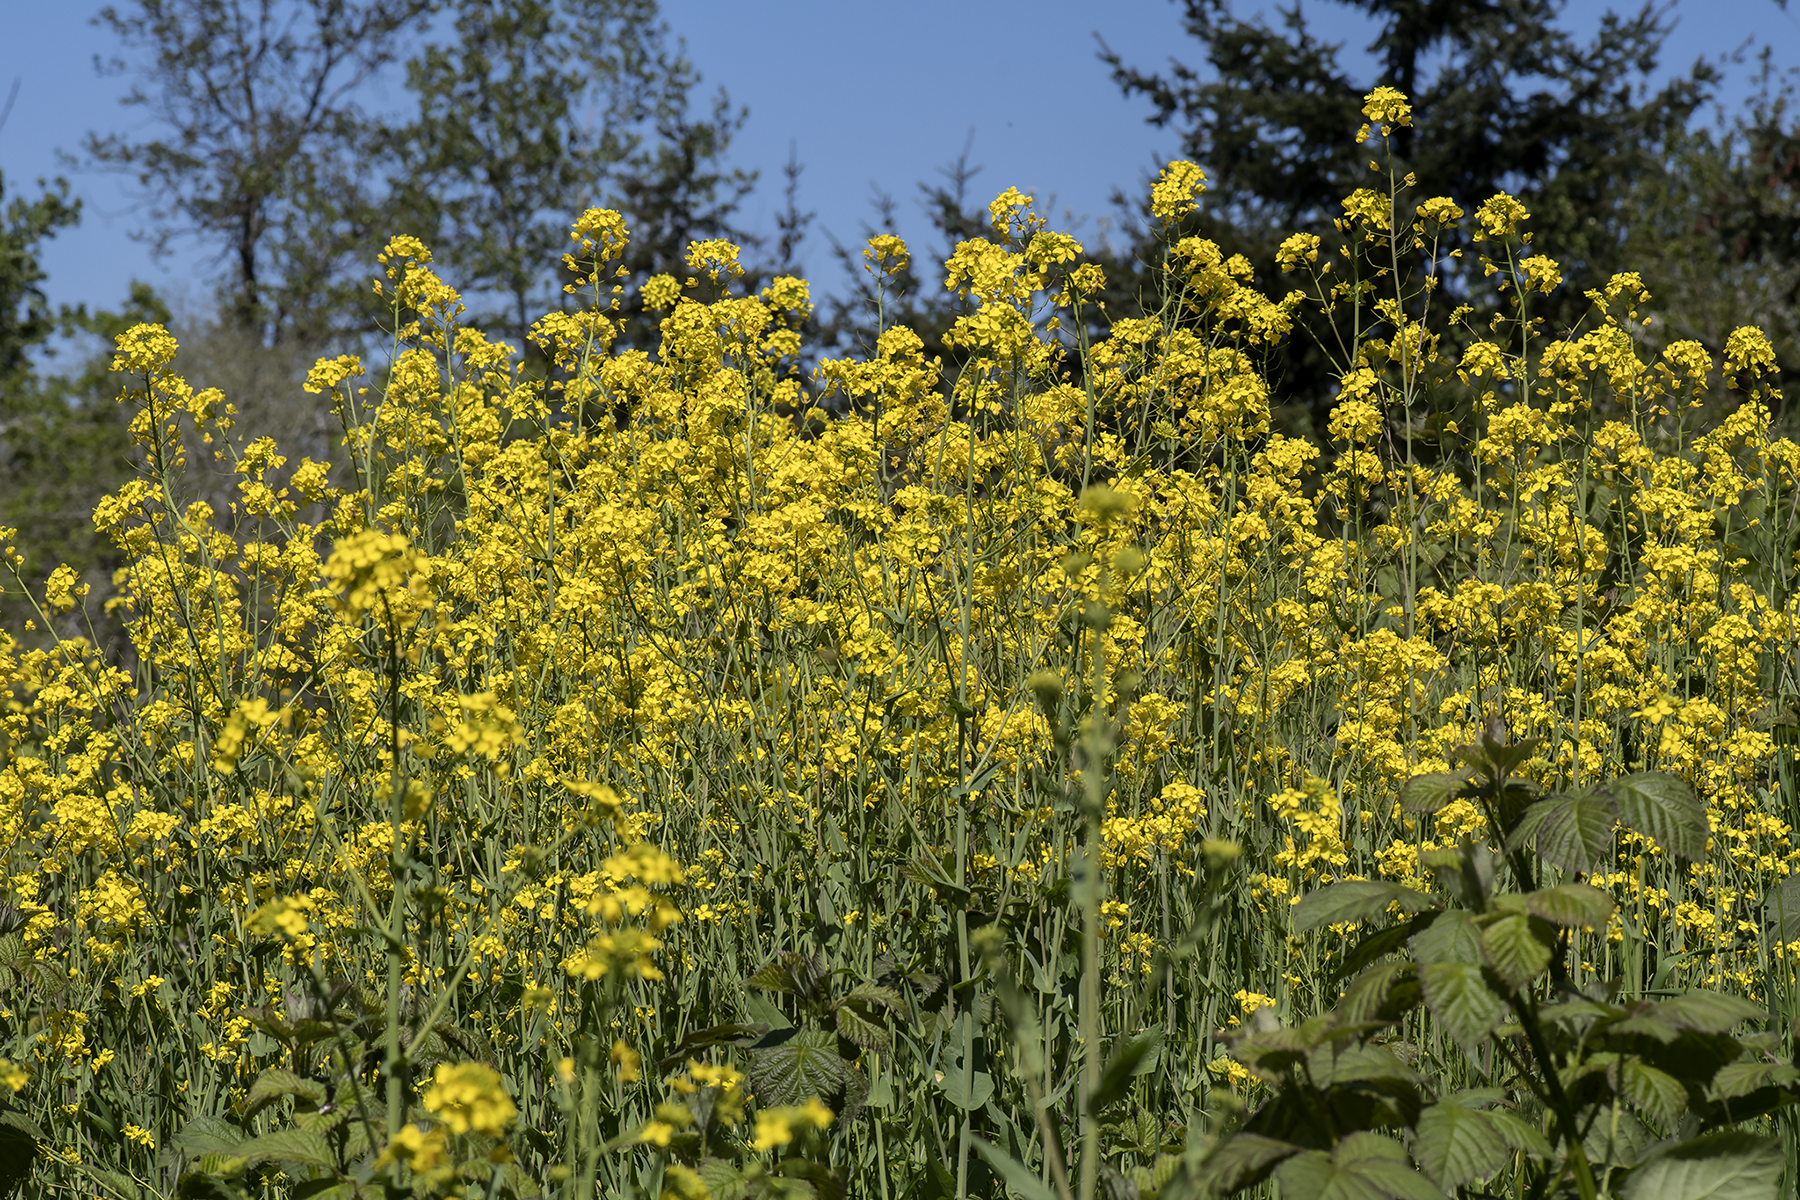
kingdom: Plantae
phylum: Tracheophyta
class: Magnoliopsida
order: Brassicales
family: Brassicaceae
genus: Brassica
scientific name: Brassica rapa
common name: Field mustard
